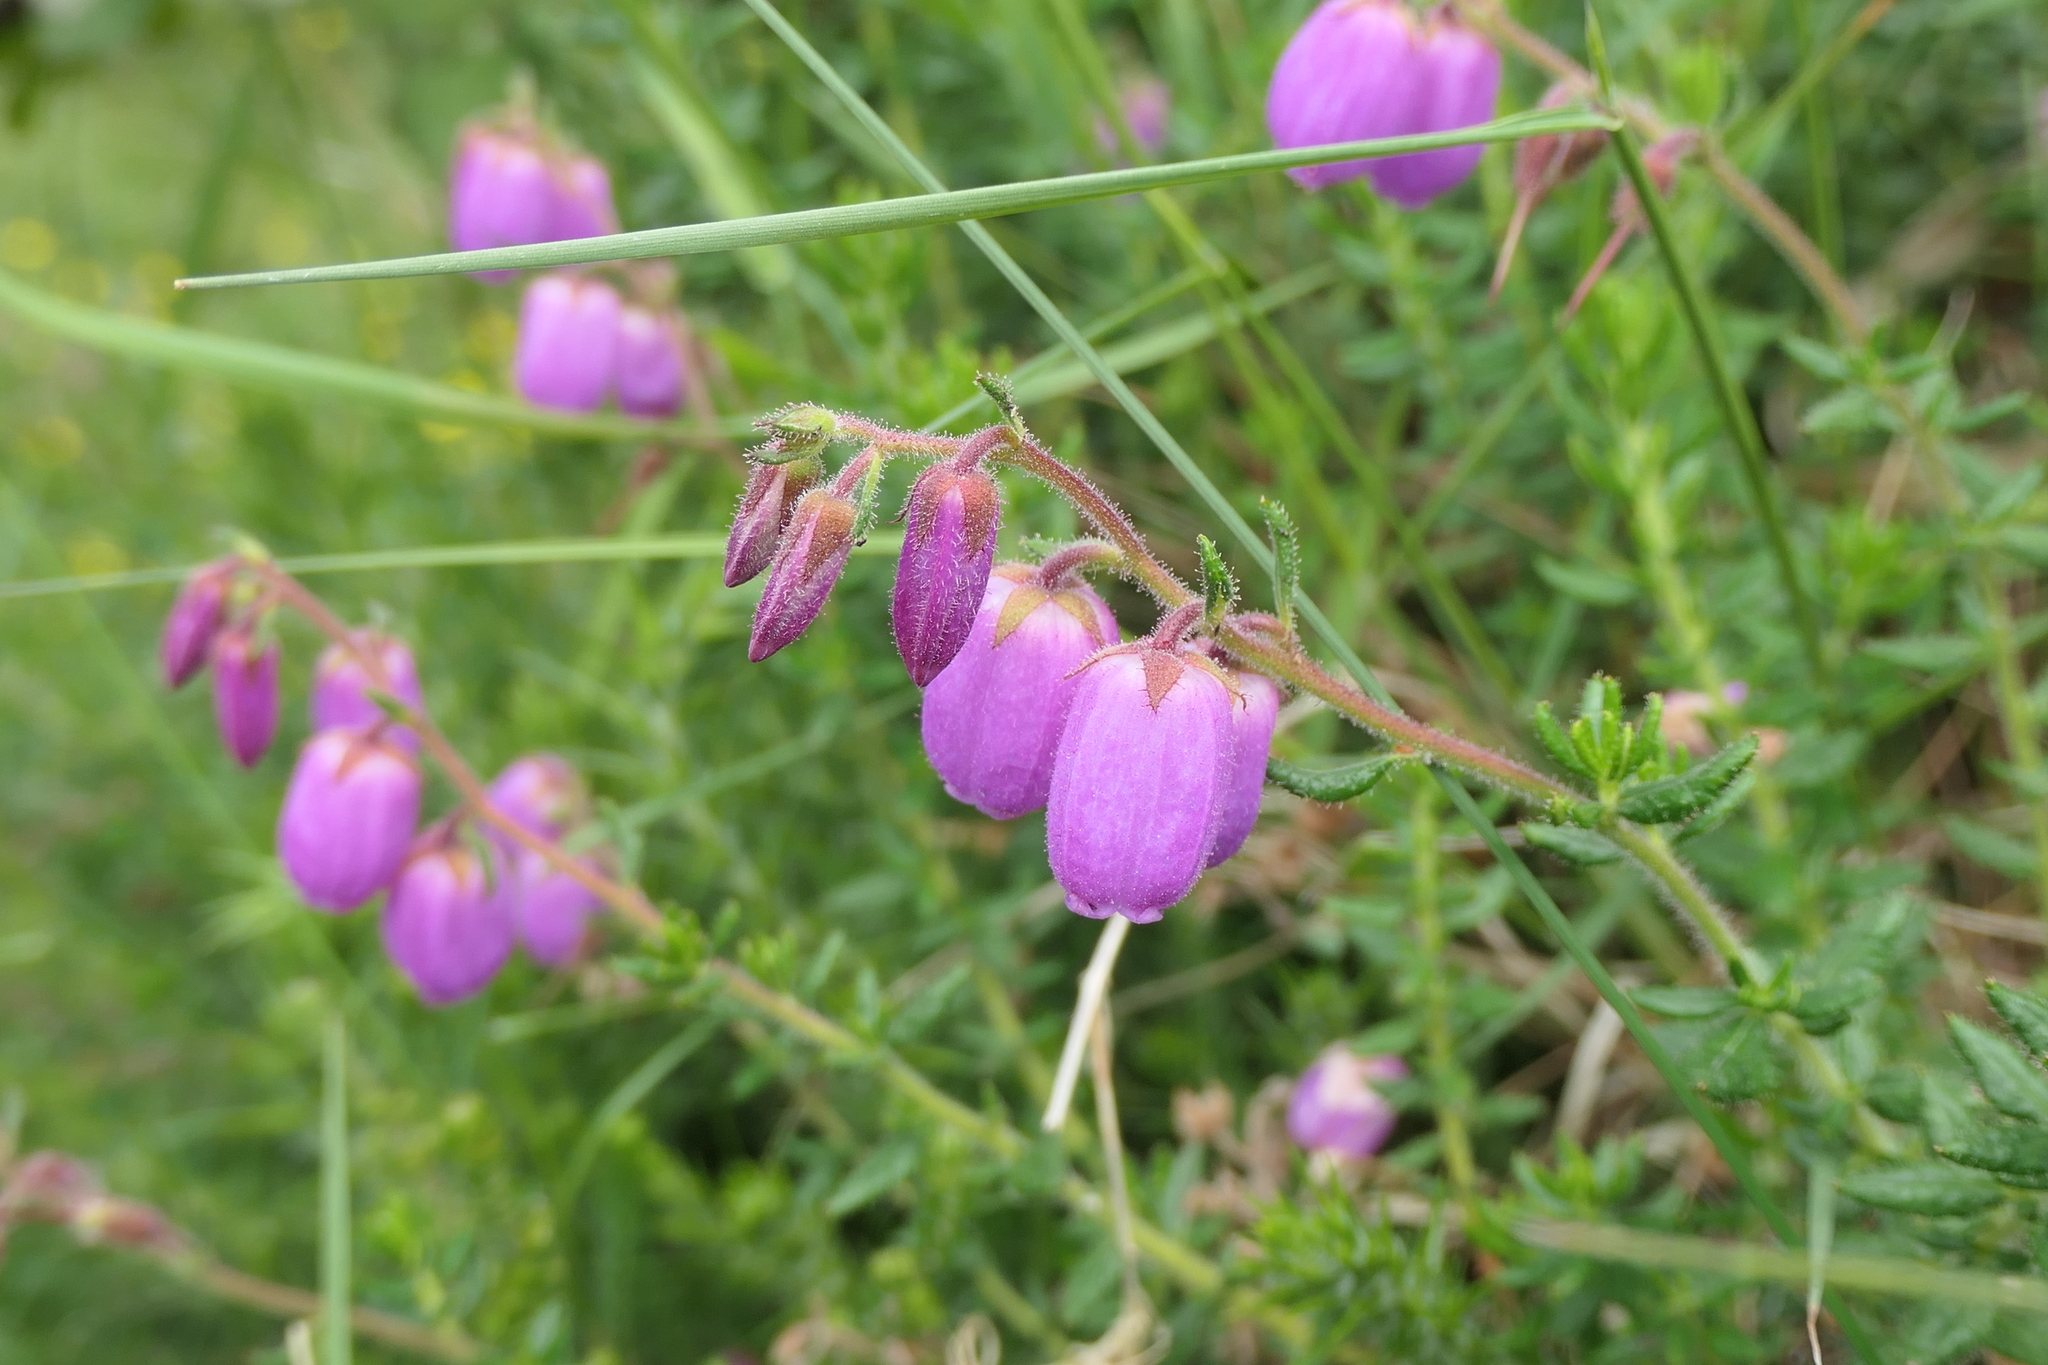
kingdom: Plantae
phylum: Tracheophyta
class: Magnoliopsida
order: Ericales
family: Ericaceae
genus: Daboecia
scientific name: Daboecia cantabrica
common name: St. dabeoc's-heath
